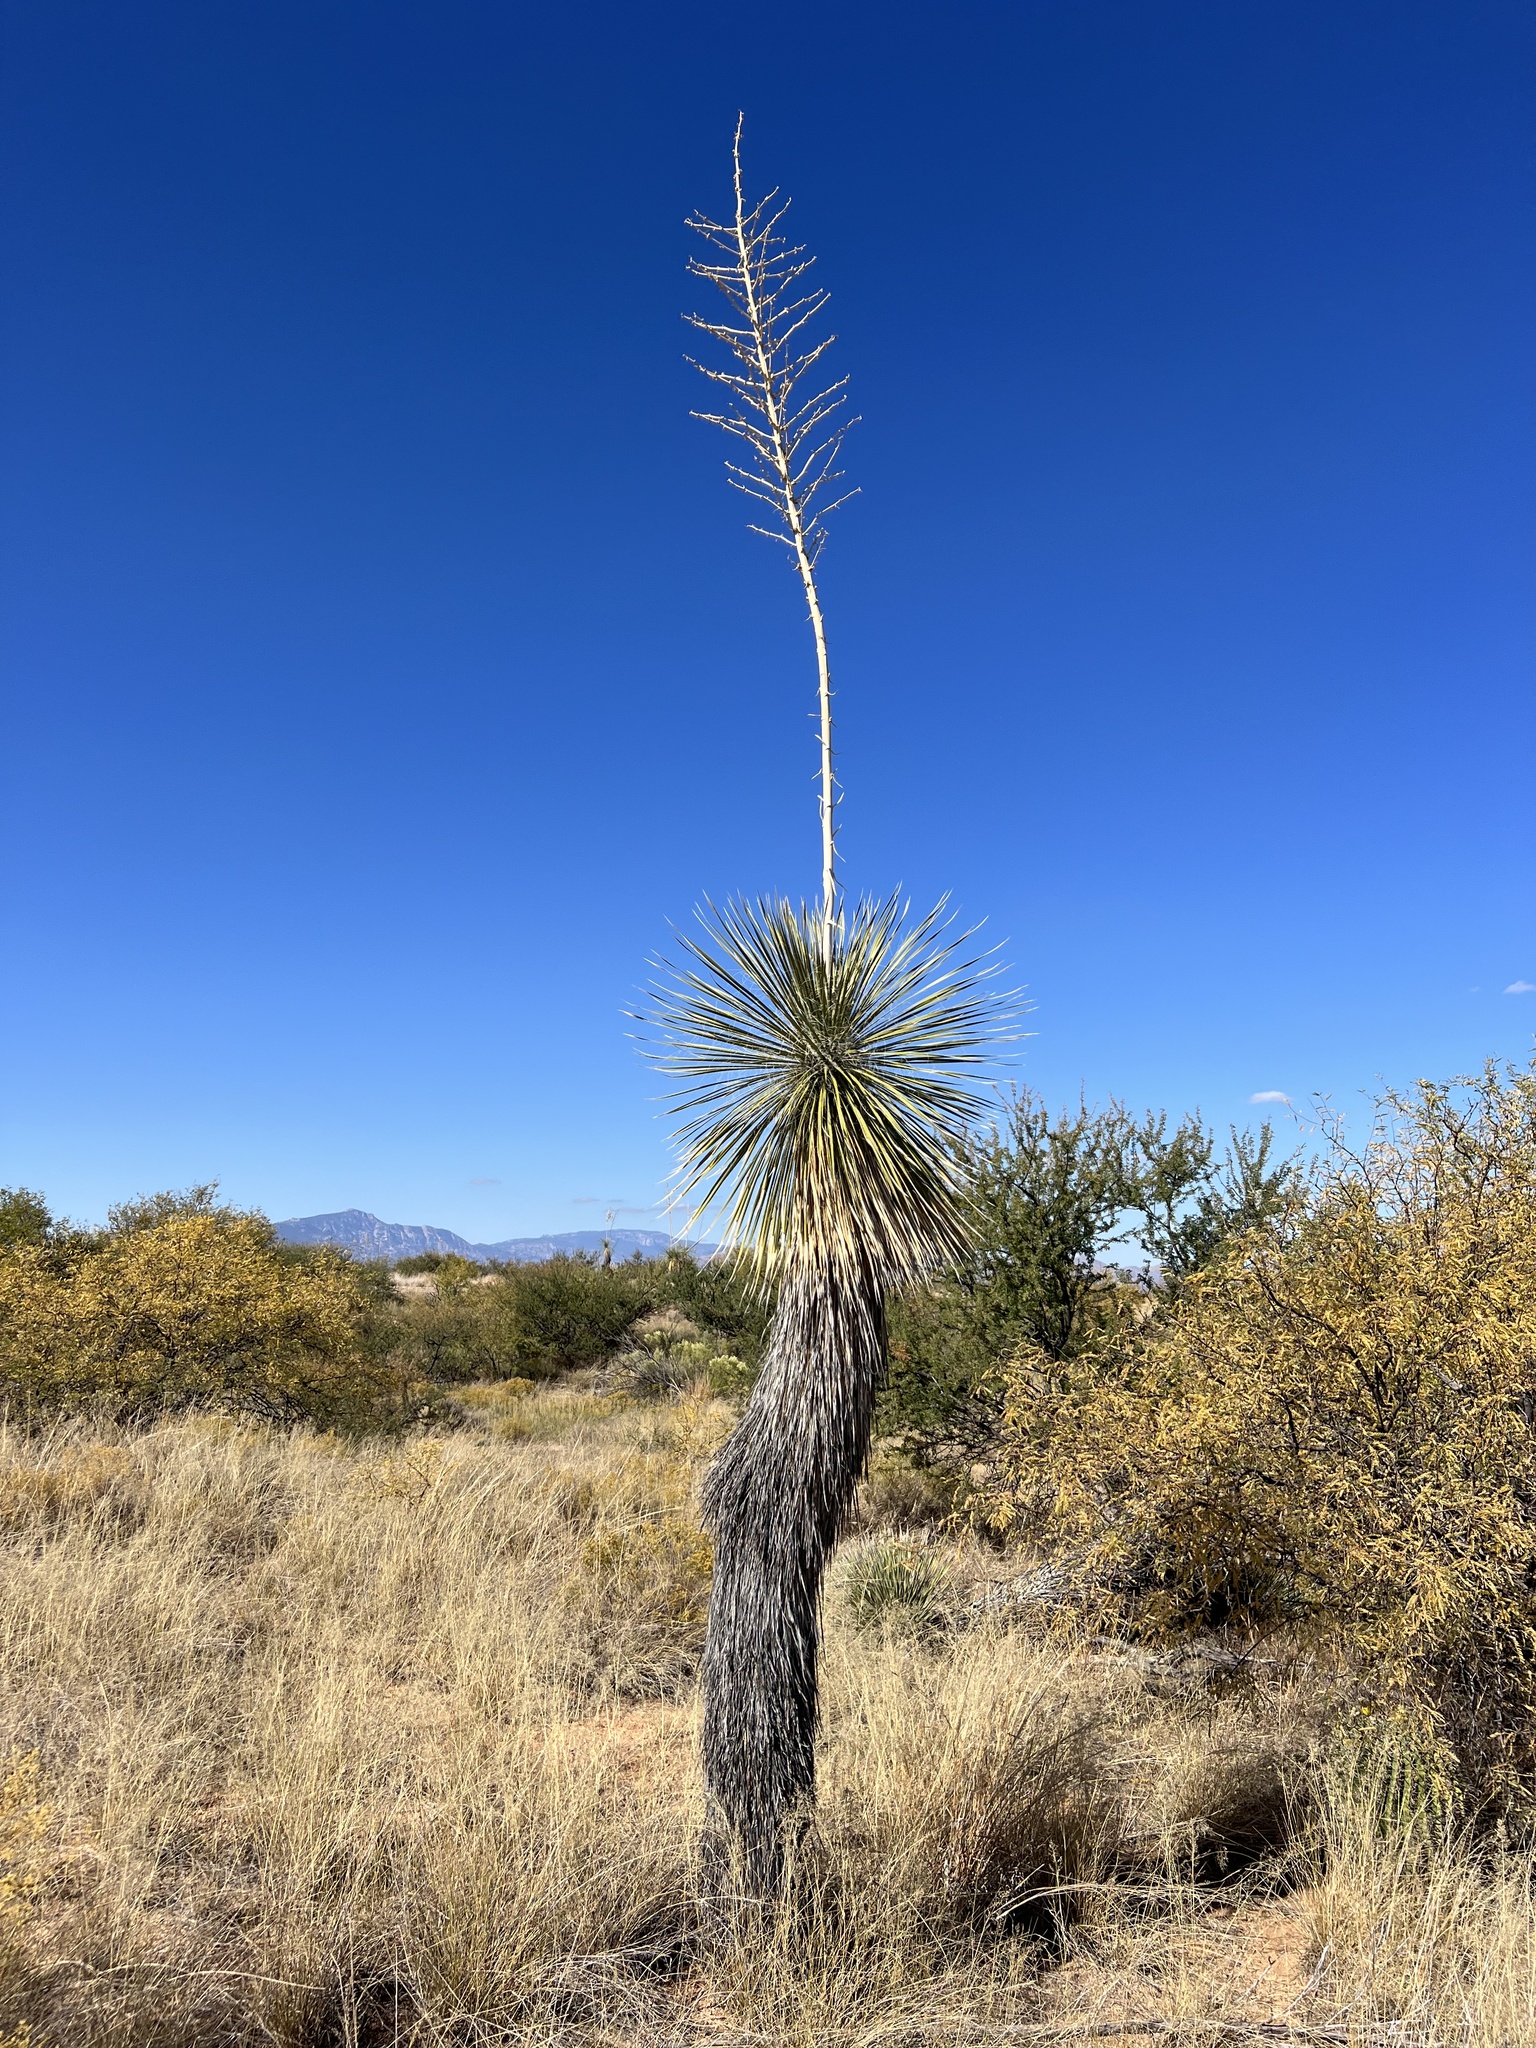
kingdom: Plantae
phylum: Tracheophyta
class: Liliopsida
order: Asparagales
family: Asparagaceae
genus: Yucca
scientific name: Yucca elata
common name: Palmella
